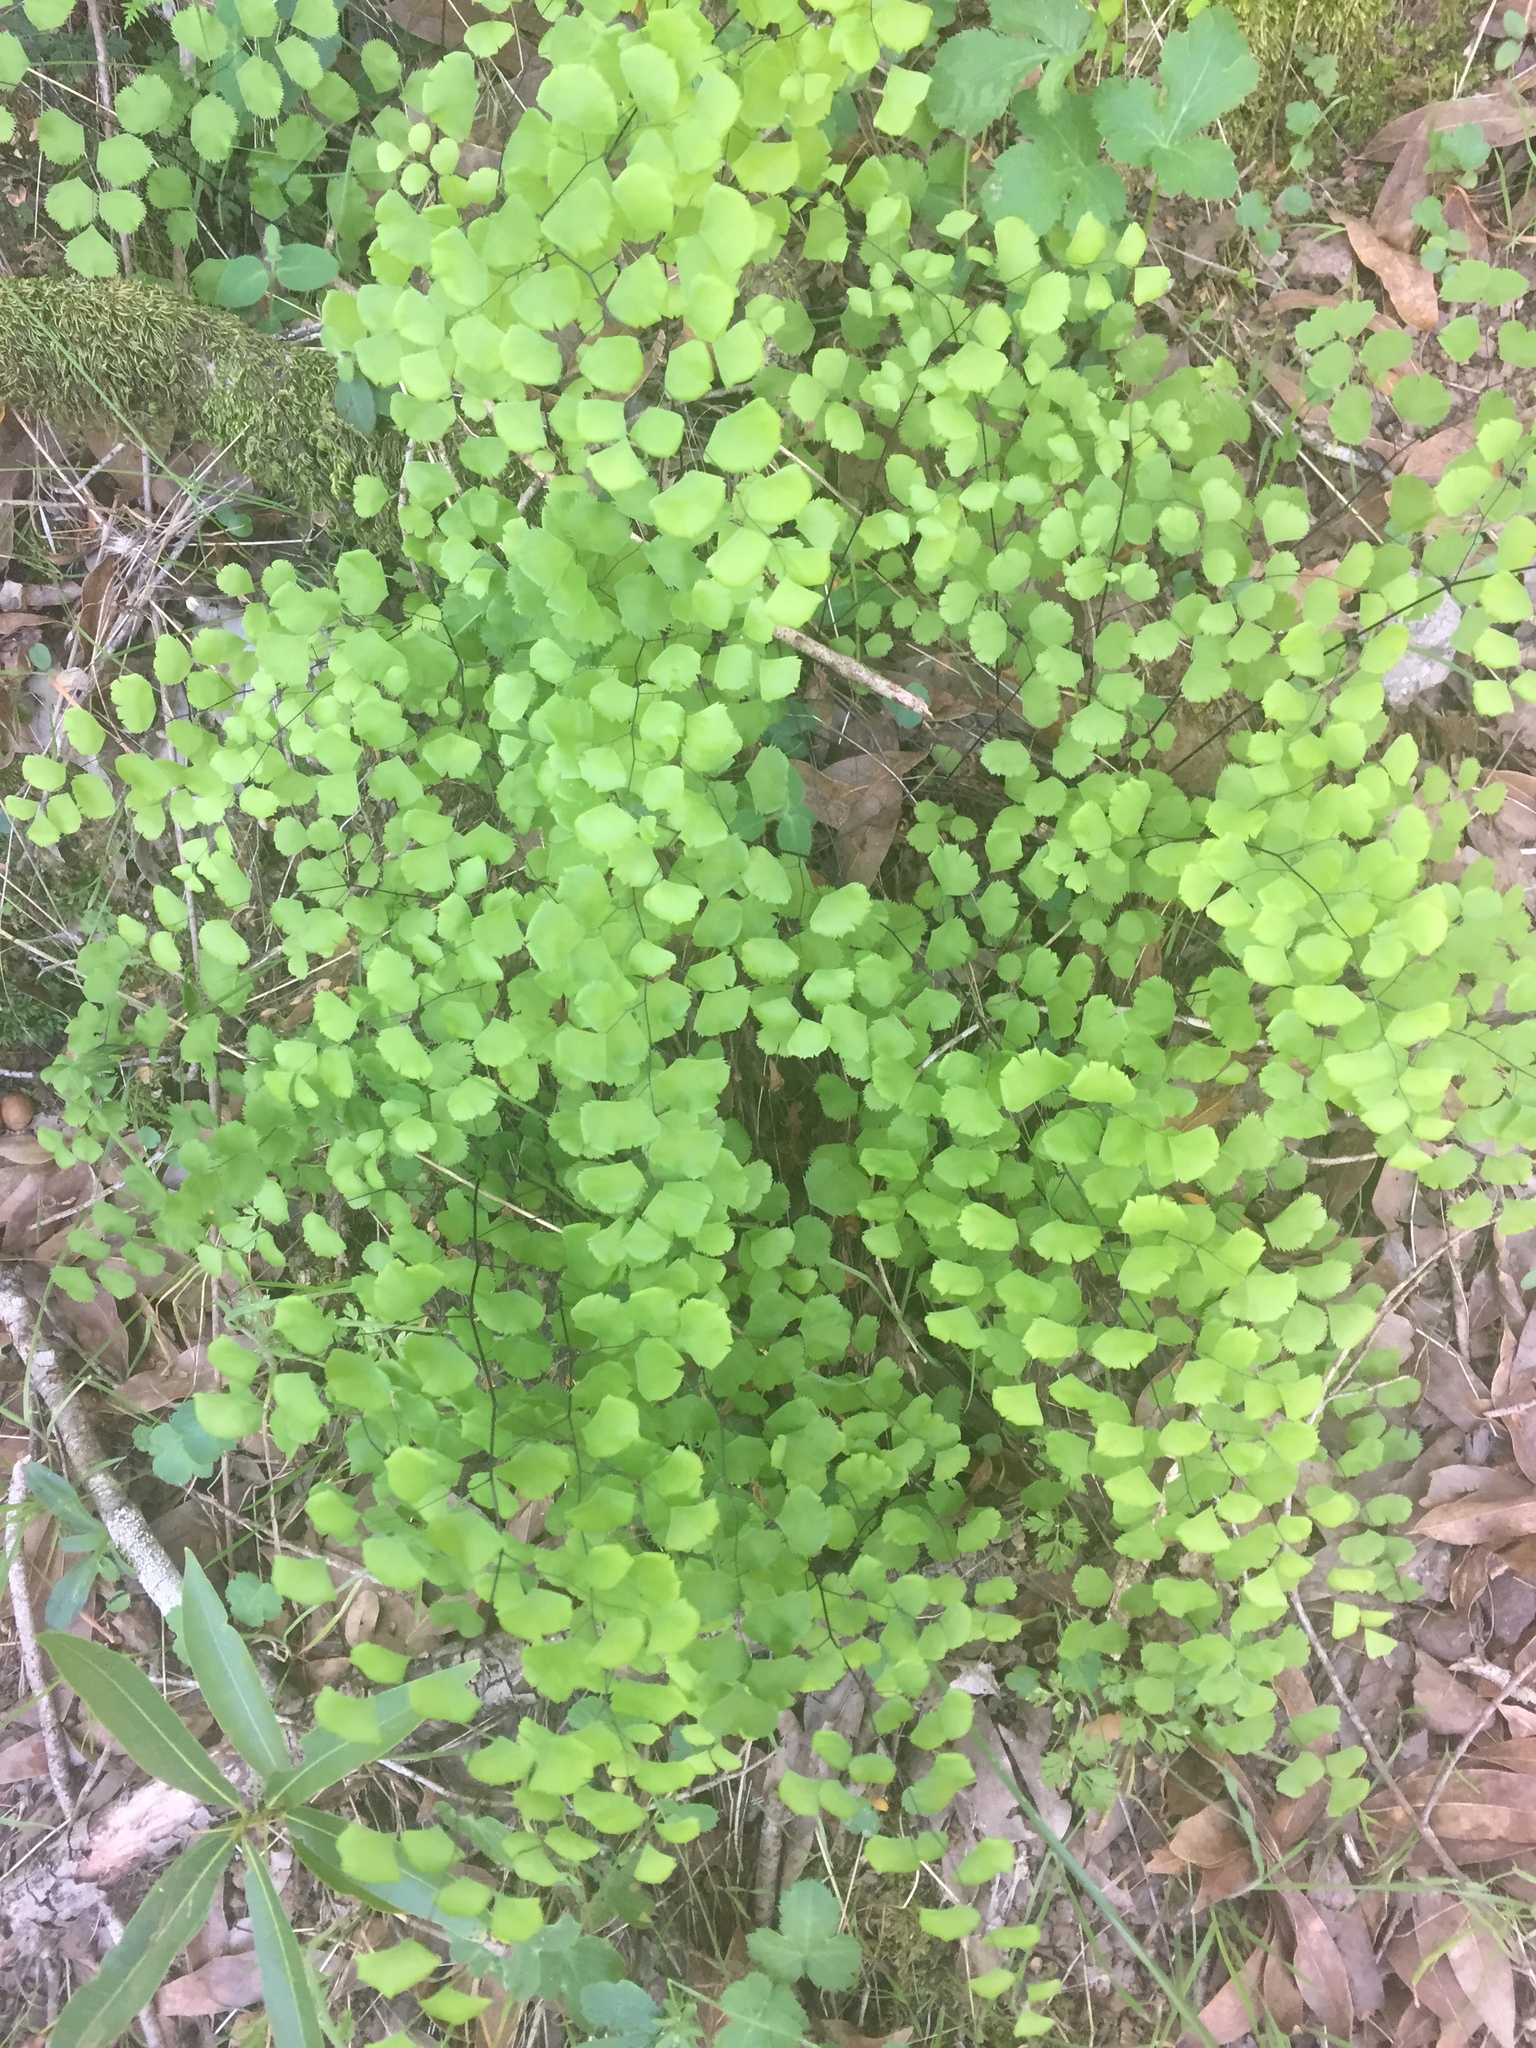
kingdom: Plantae
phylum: Tracheophyta
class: Polypodiopsida
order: Polypodiales
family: Pteridaceae
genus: Adiantum
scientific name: Adiantum jordanii
